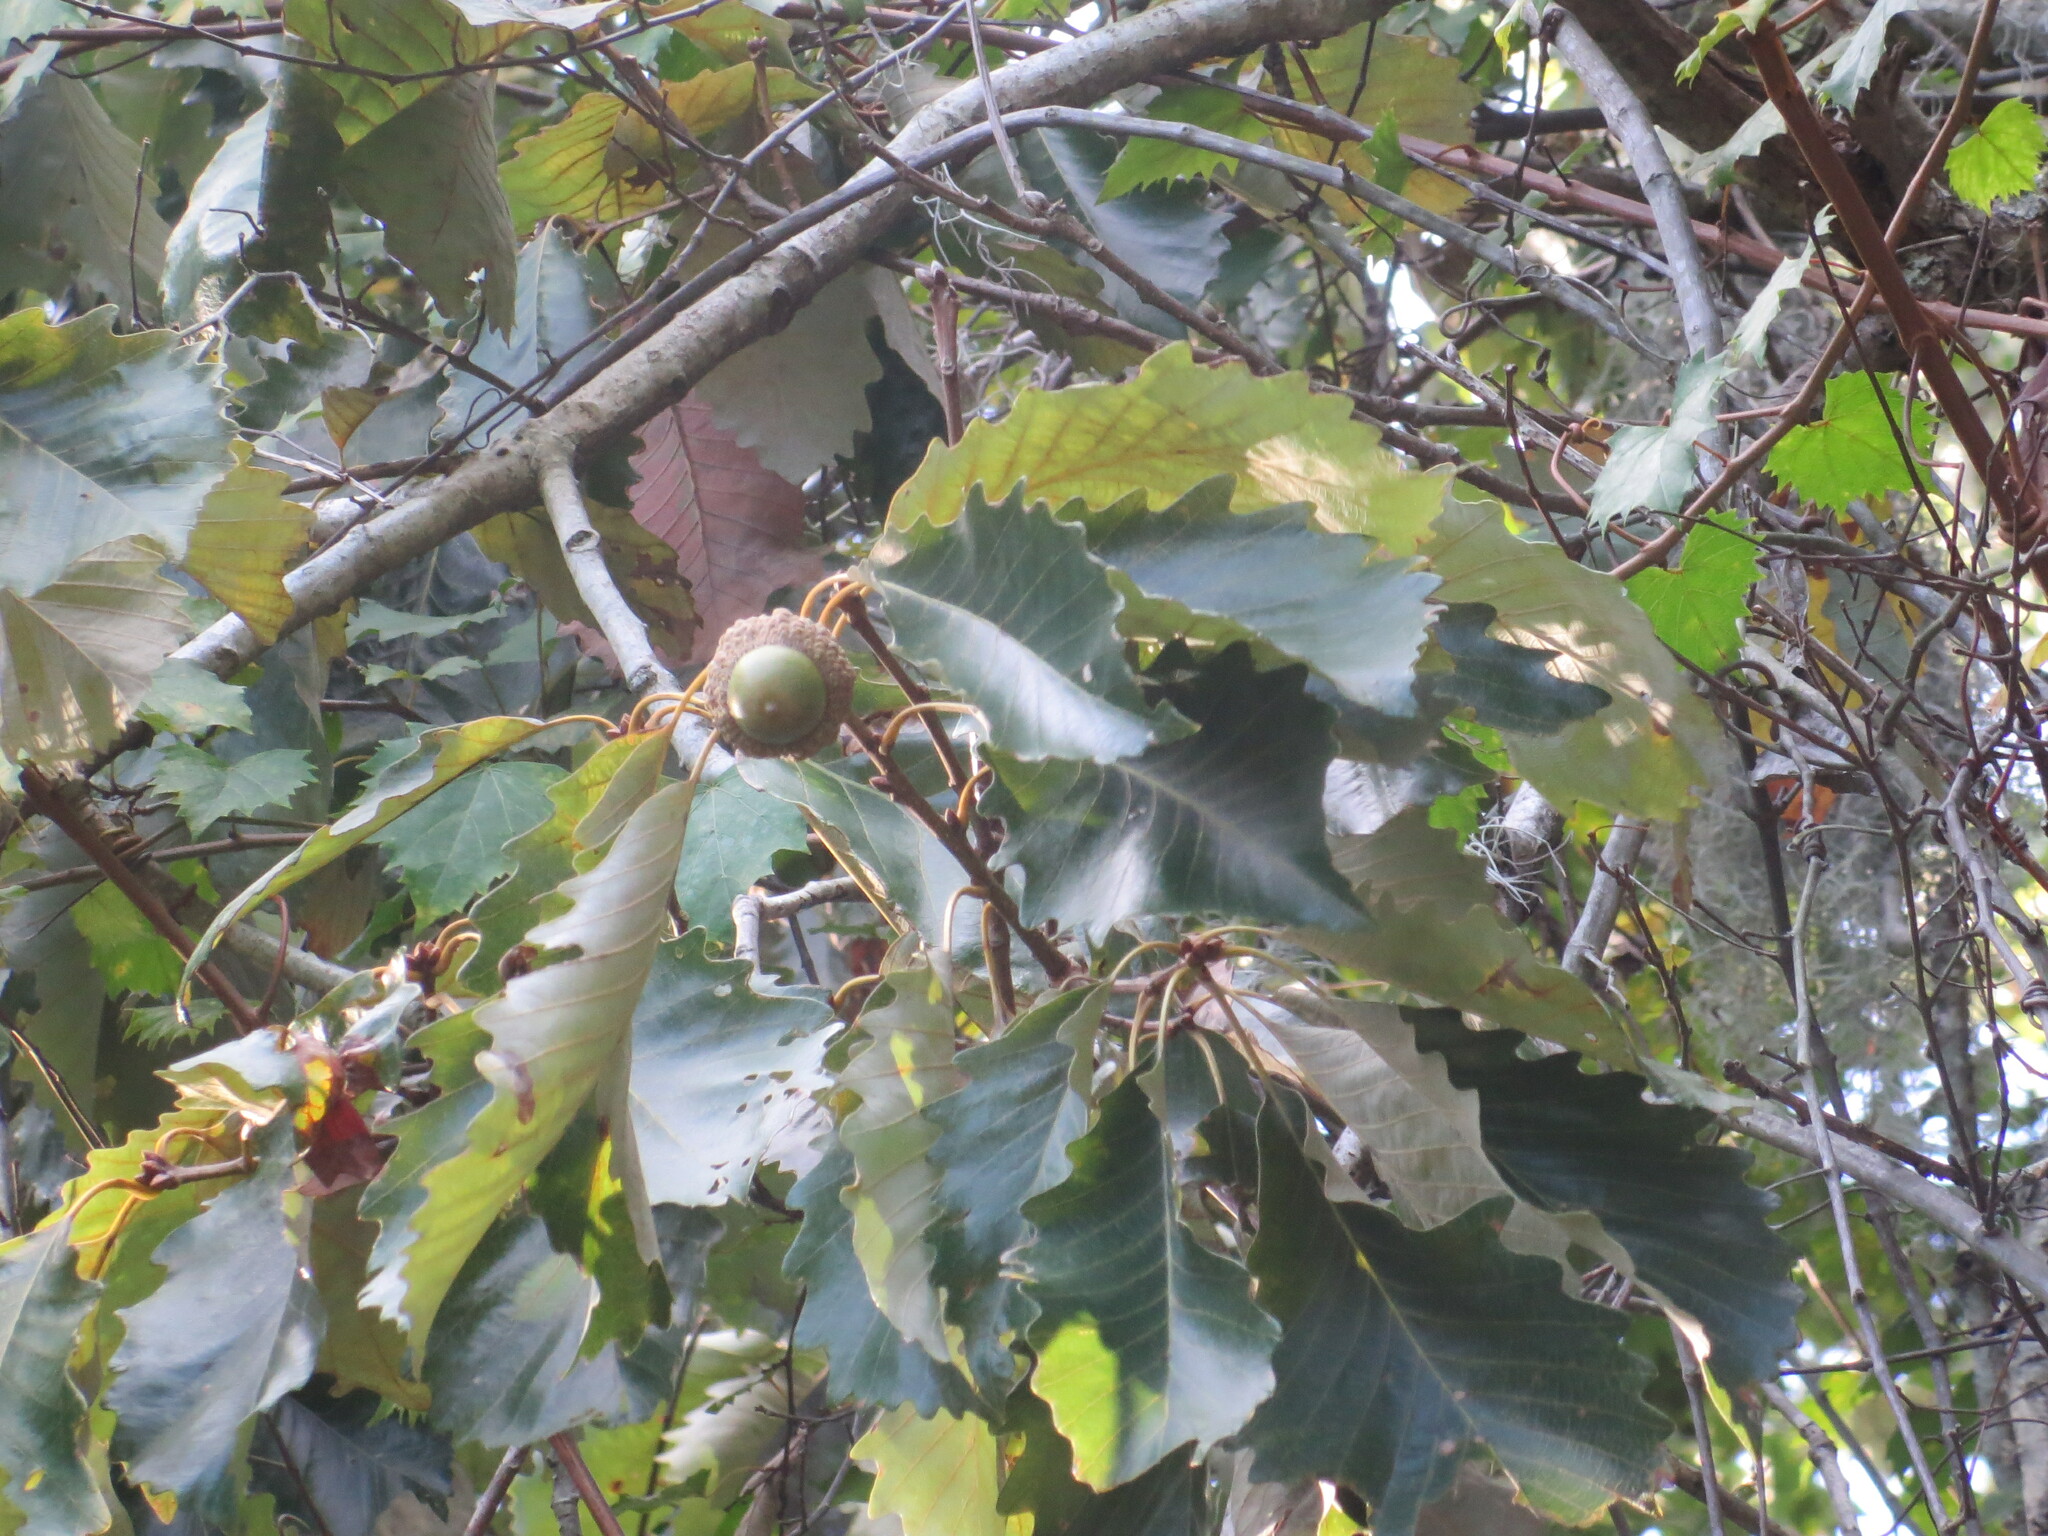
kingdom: Plantae
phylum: Tracheophyta
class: Magnoliopsida
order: Fagales
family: Fagaceae
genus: Quercus
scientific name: Quercus michauxii
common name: Swamp chestnut oak
